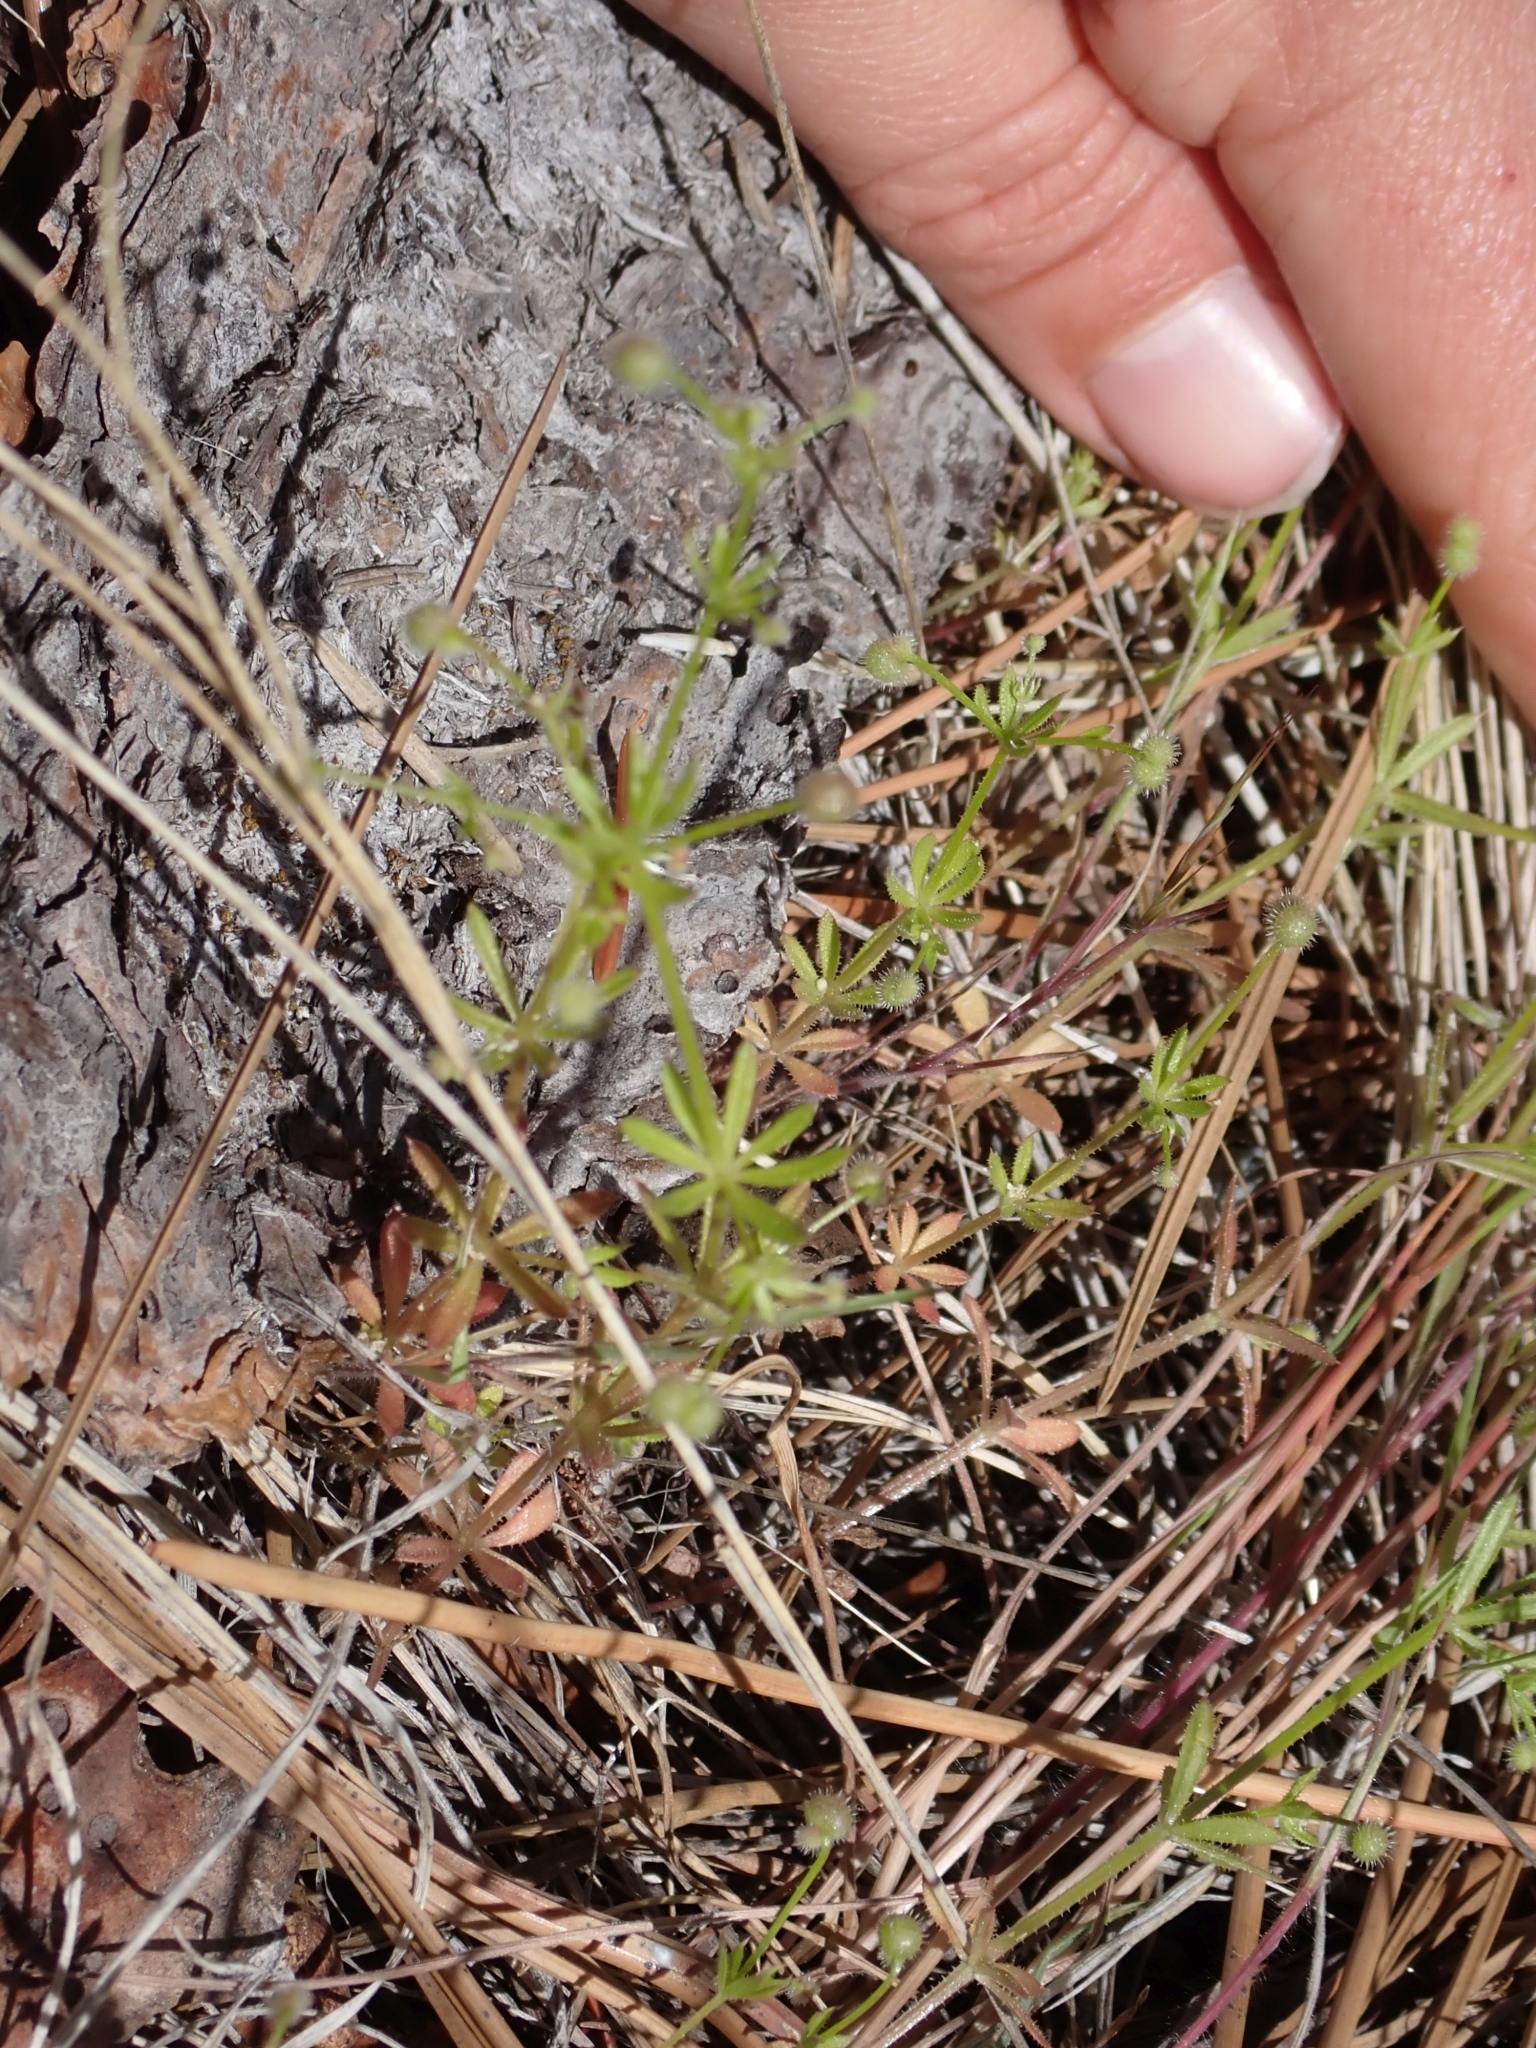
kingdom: Plantae
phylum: Tracheophyta
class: Magnoliopsida
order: Gentianales
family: Rubiaceae
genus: Galium
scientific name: Galium aparine
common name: Cleavers
